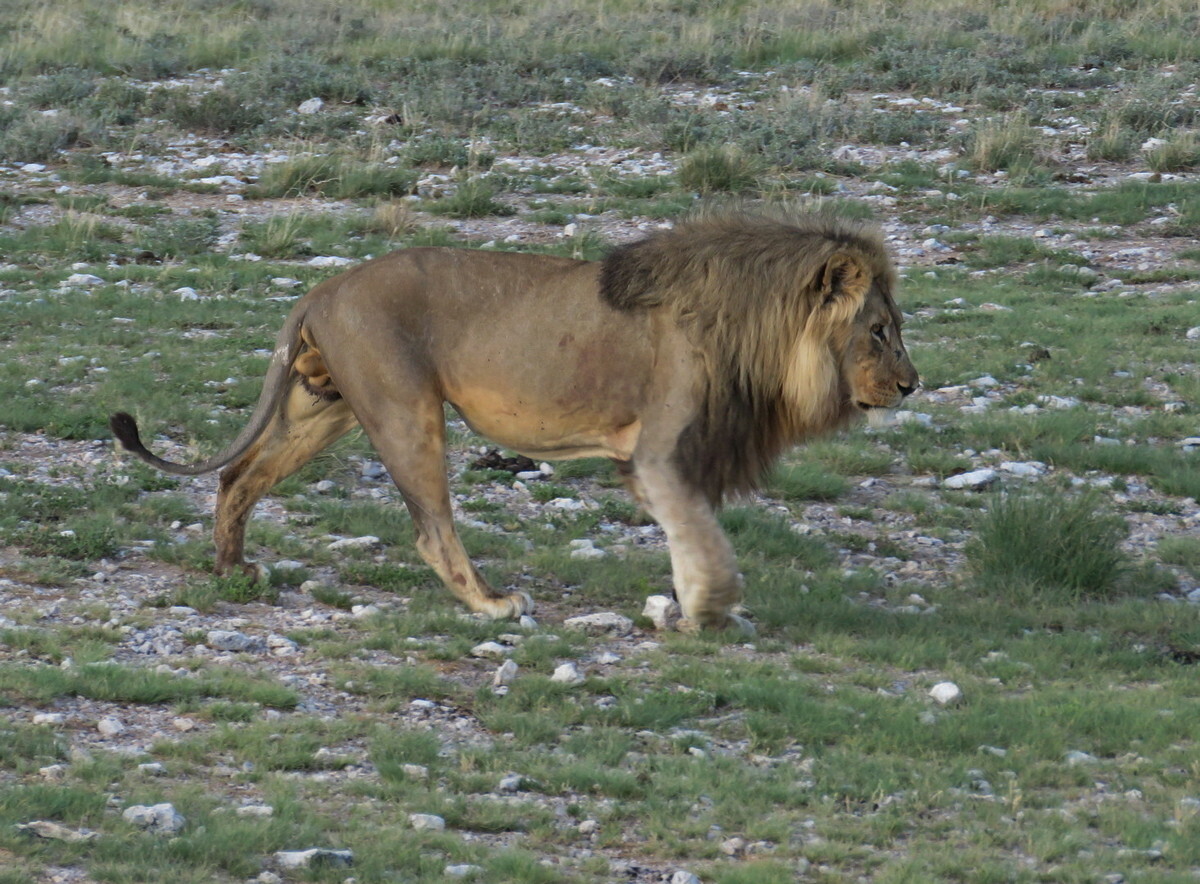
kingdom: Animalia
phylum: Chordata
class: Mammalia
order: Carnivora
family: Felidae
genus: Panthera
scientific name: Panthera leo
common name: Lion
